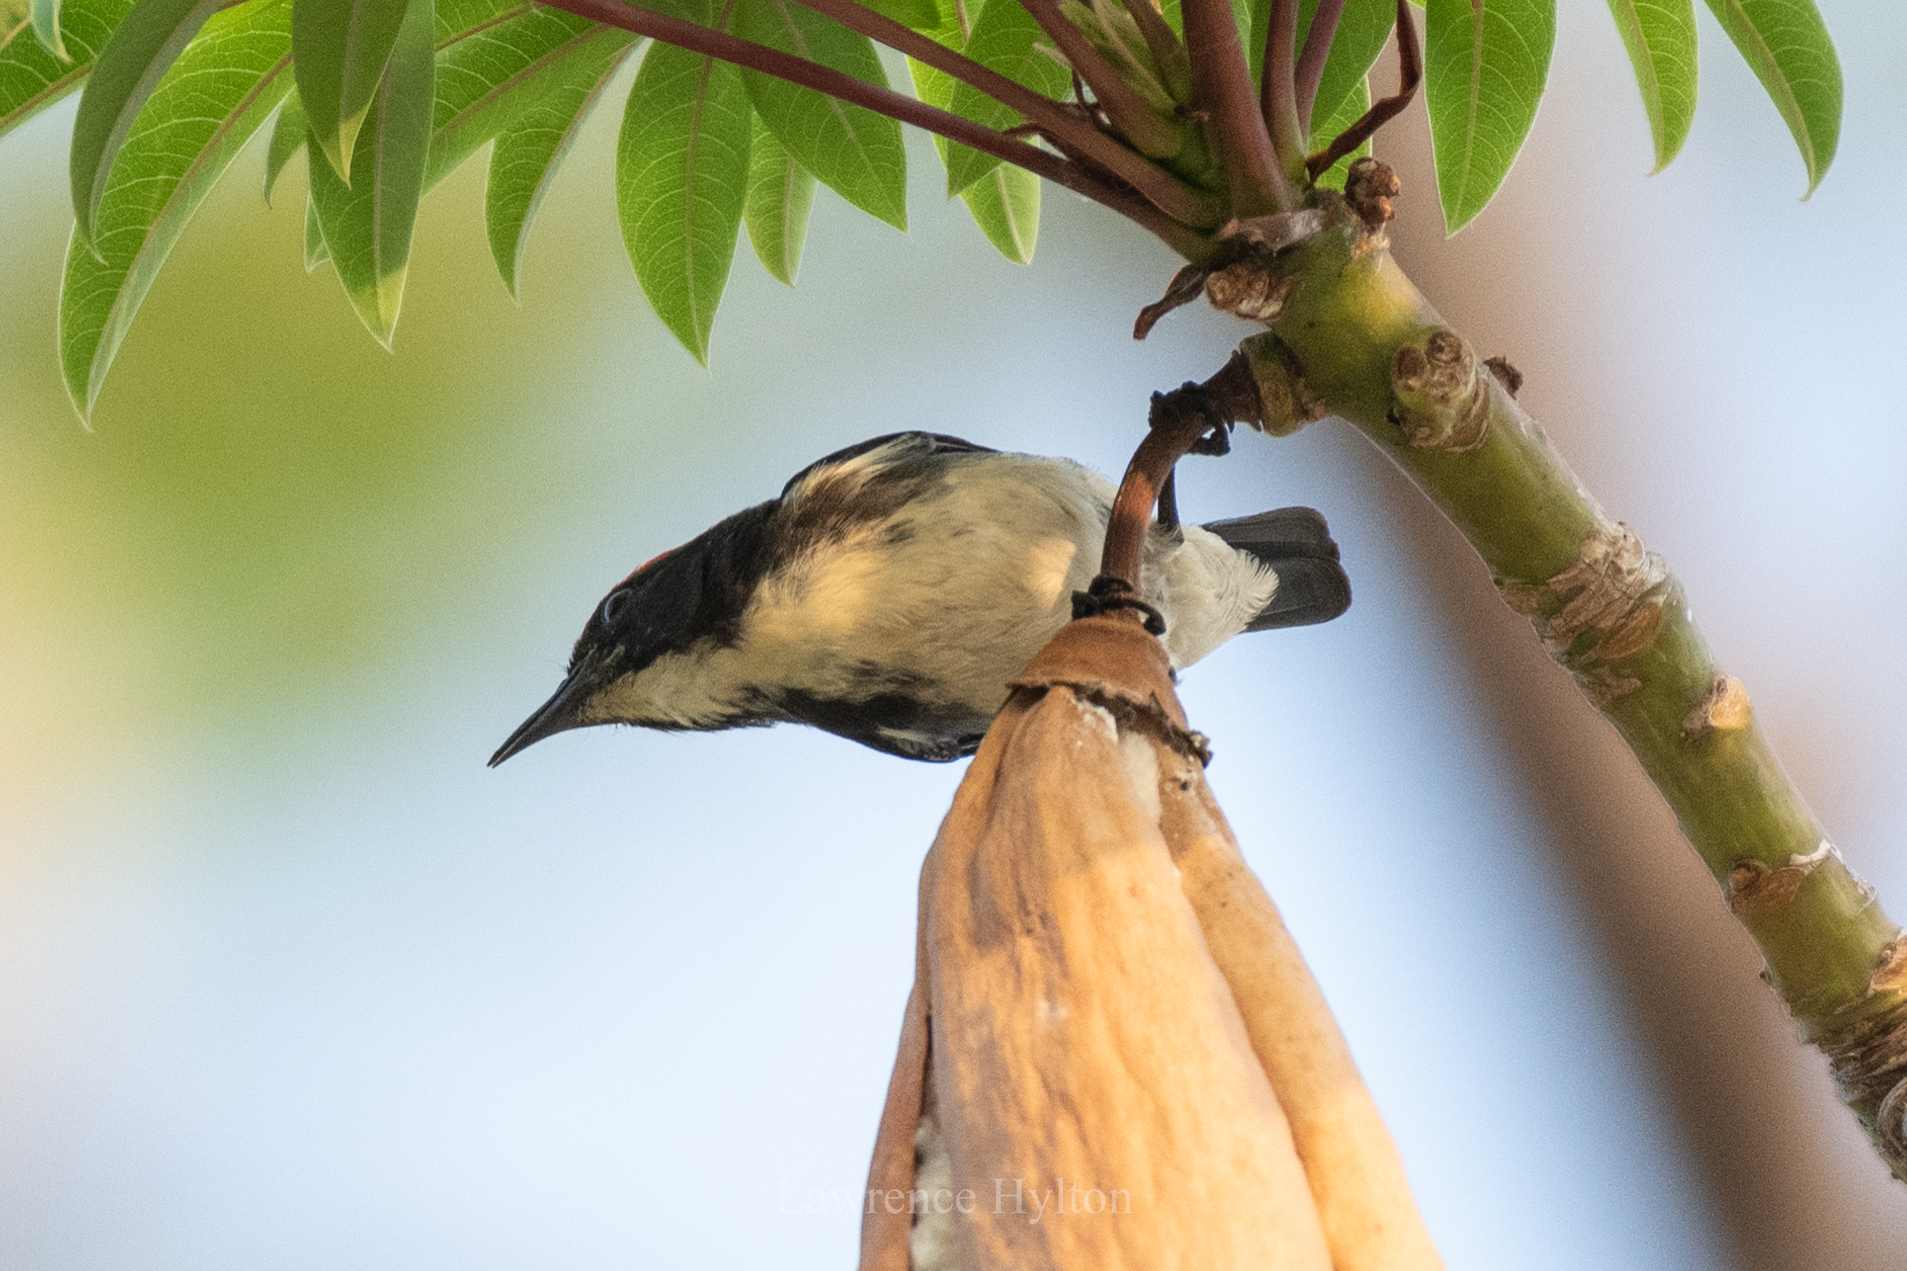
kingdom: Animalia
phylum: Chordata
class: Aves
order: Passeriformes
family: Dicaeidae
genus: Dicaeum
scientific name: Dicaeum cruentatum
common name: Scarlet-backed flowerpecker
